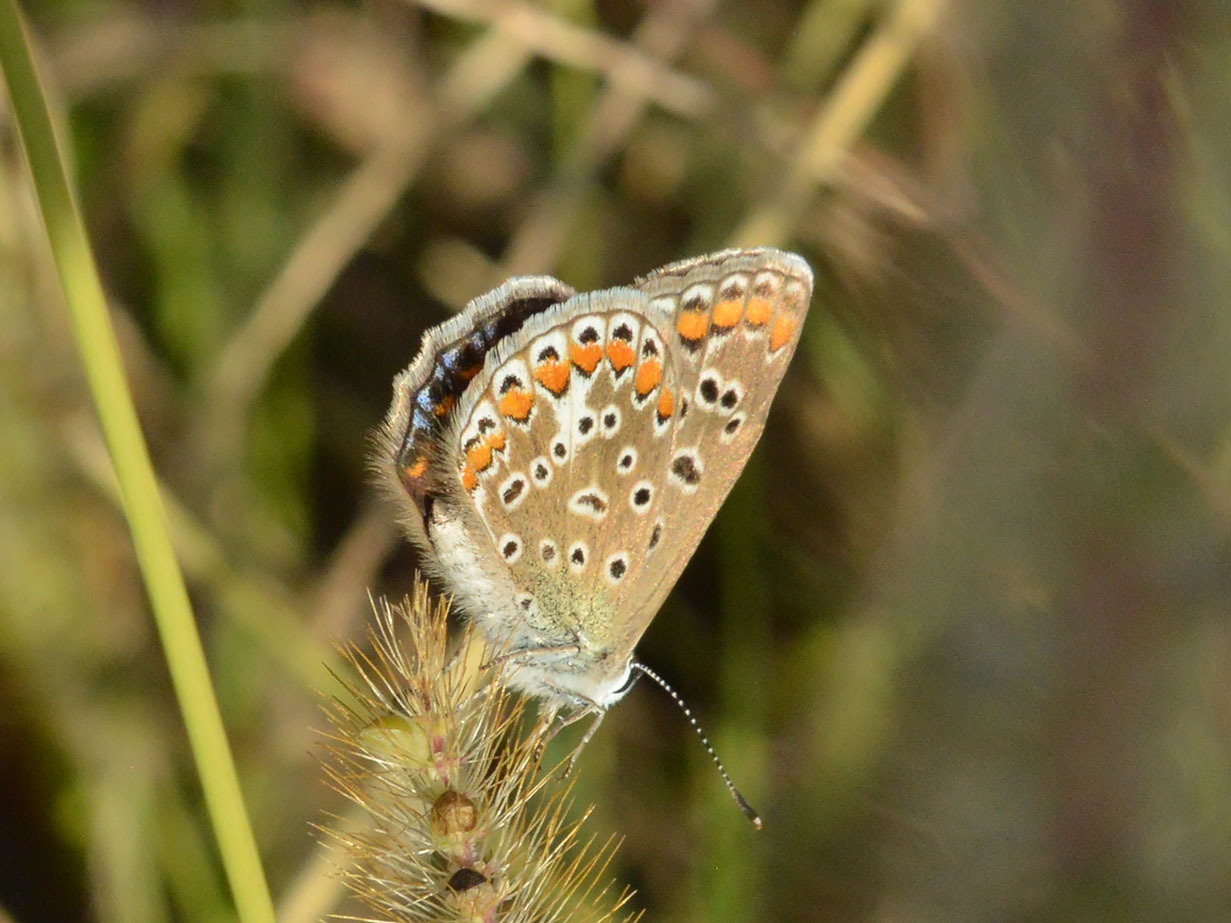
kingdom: Animalia
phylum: Arthropoda
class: Insecta
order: Lepidoptera
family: Lycaenidae
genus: Polyommatus
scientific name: Polyommatus icarus
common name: Common blue
